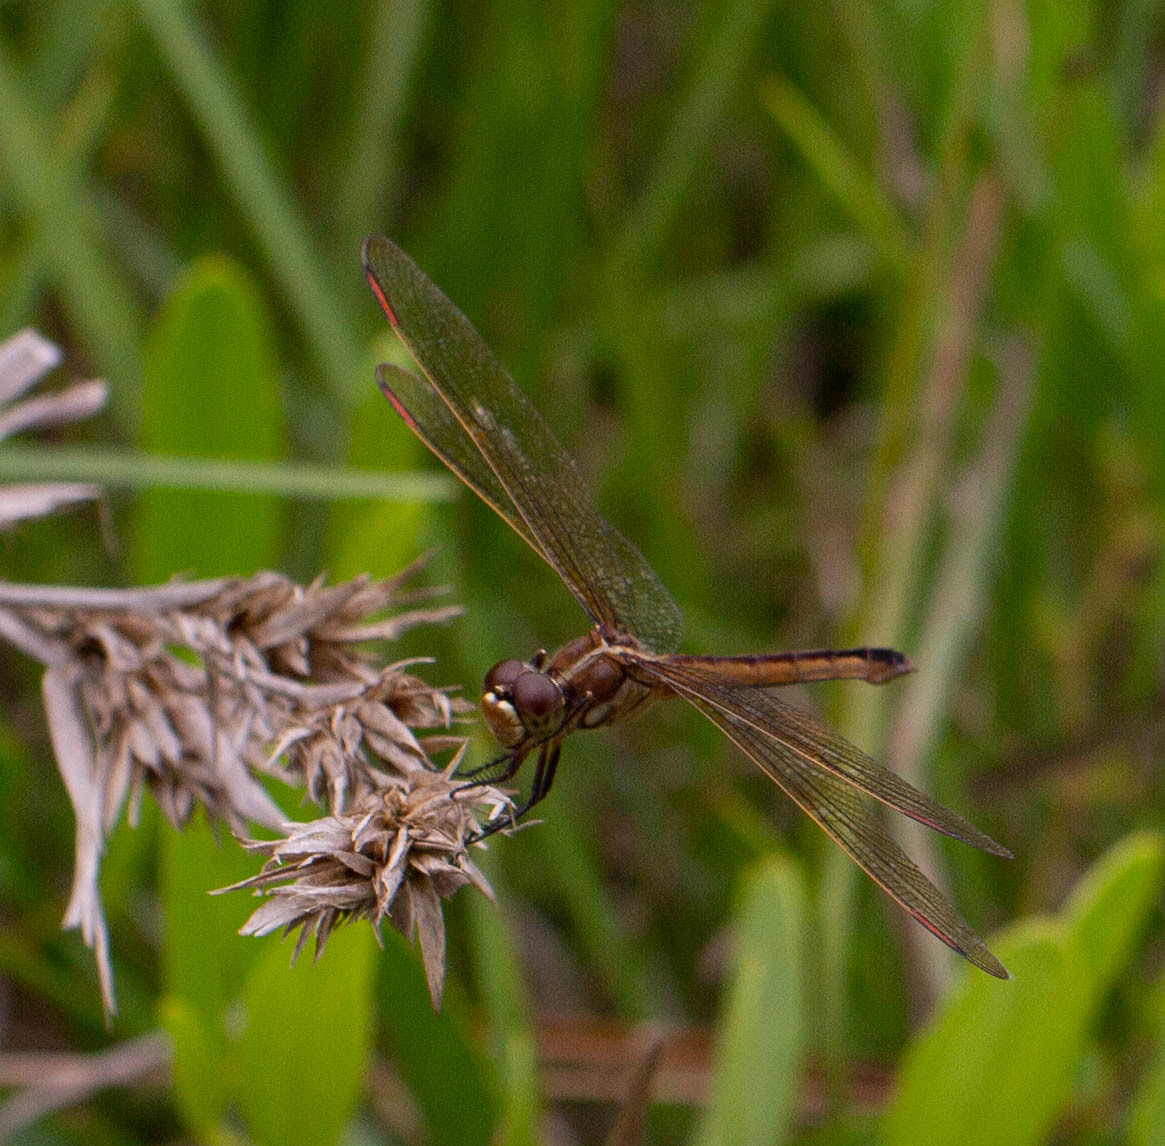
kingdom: Animalia
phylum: Arthropoda
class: Insecta
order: Odonata
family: Libellulidae
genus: Libellula
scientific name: Libellula auripennis
